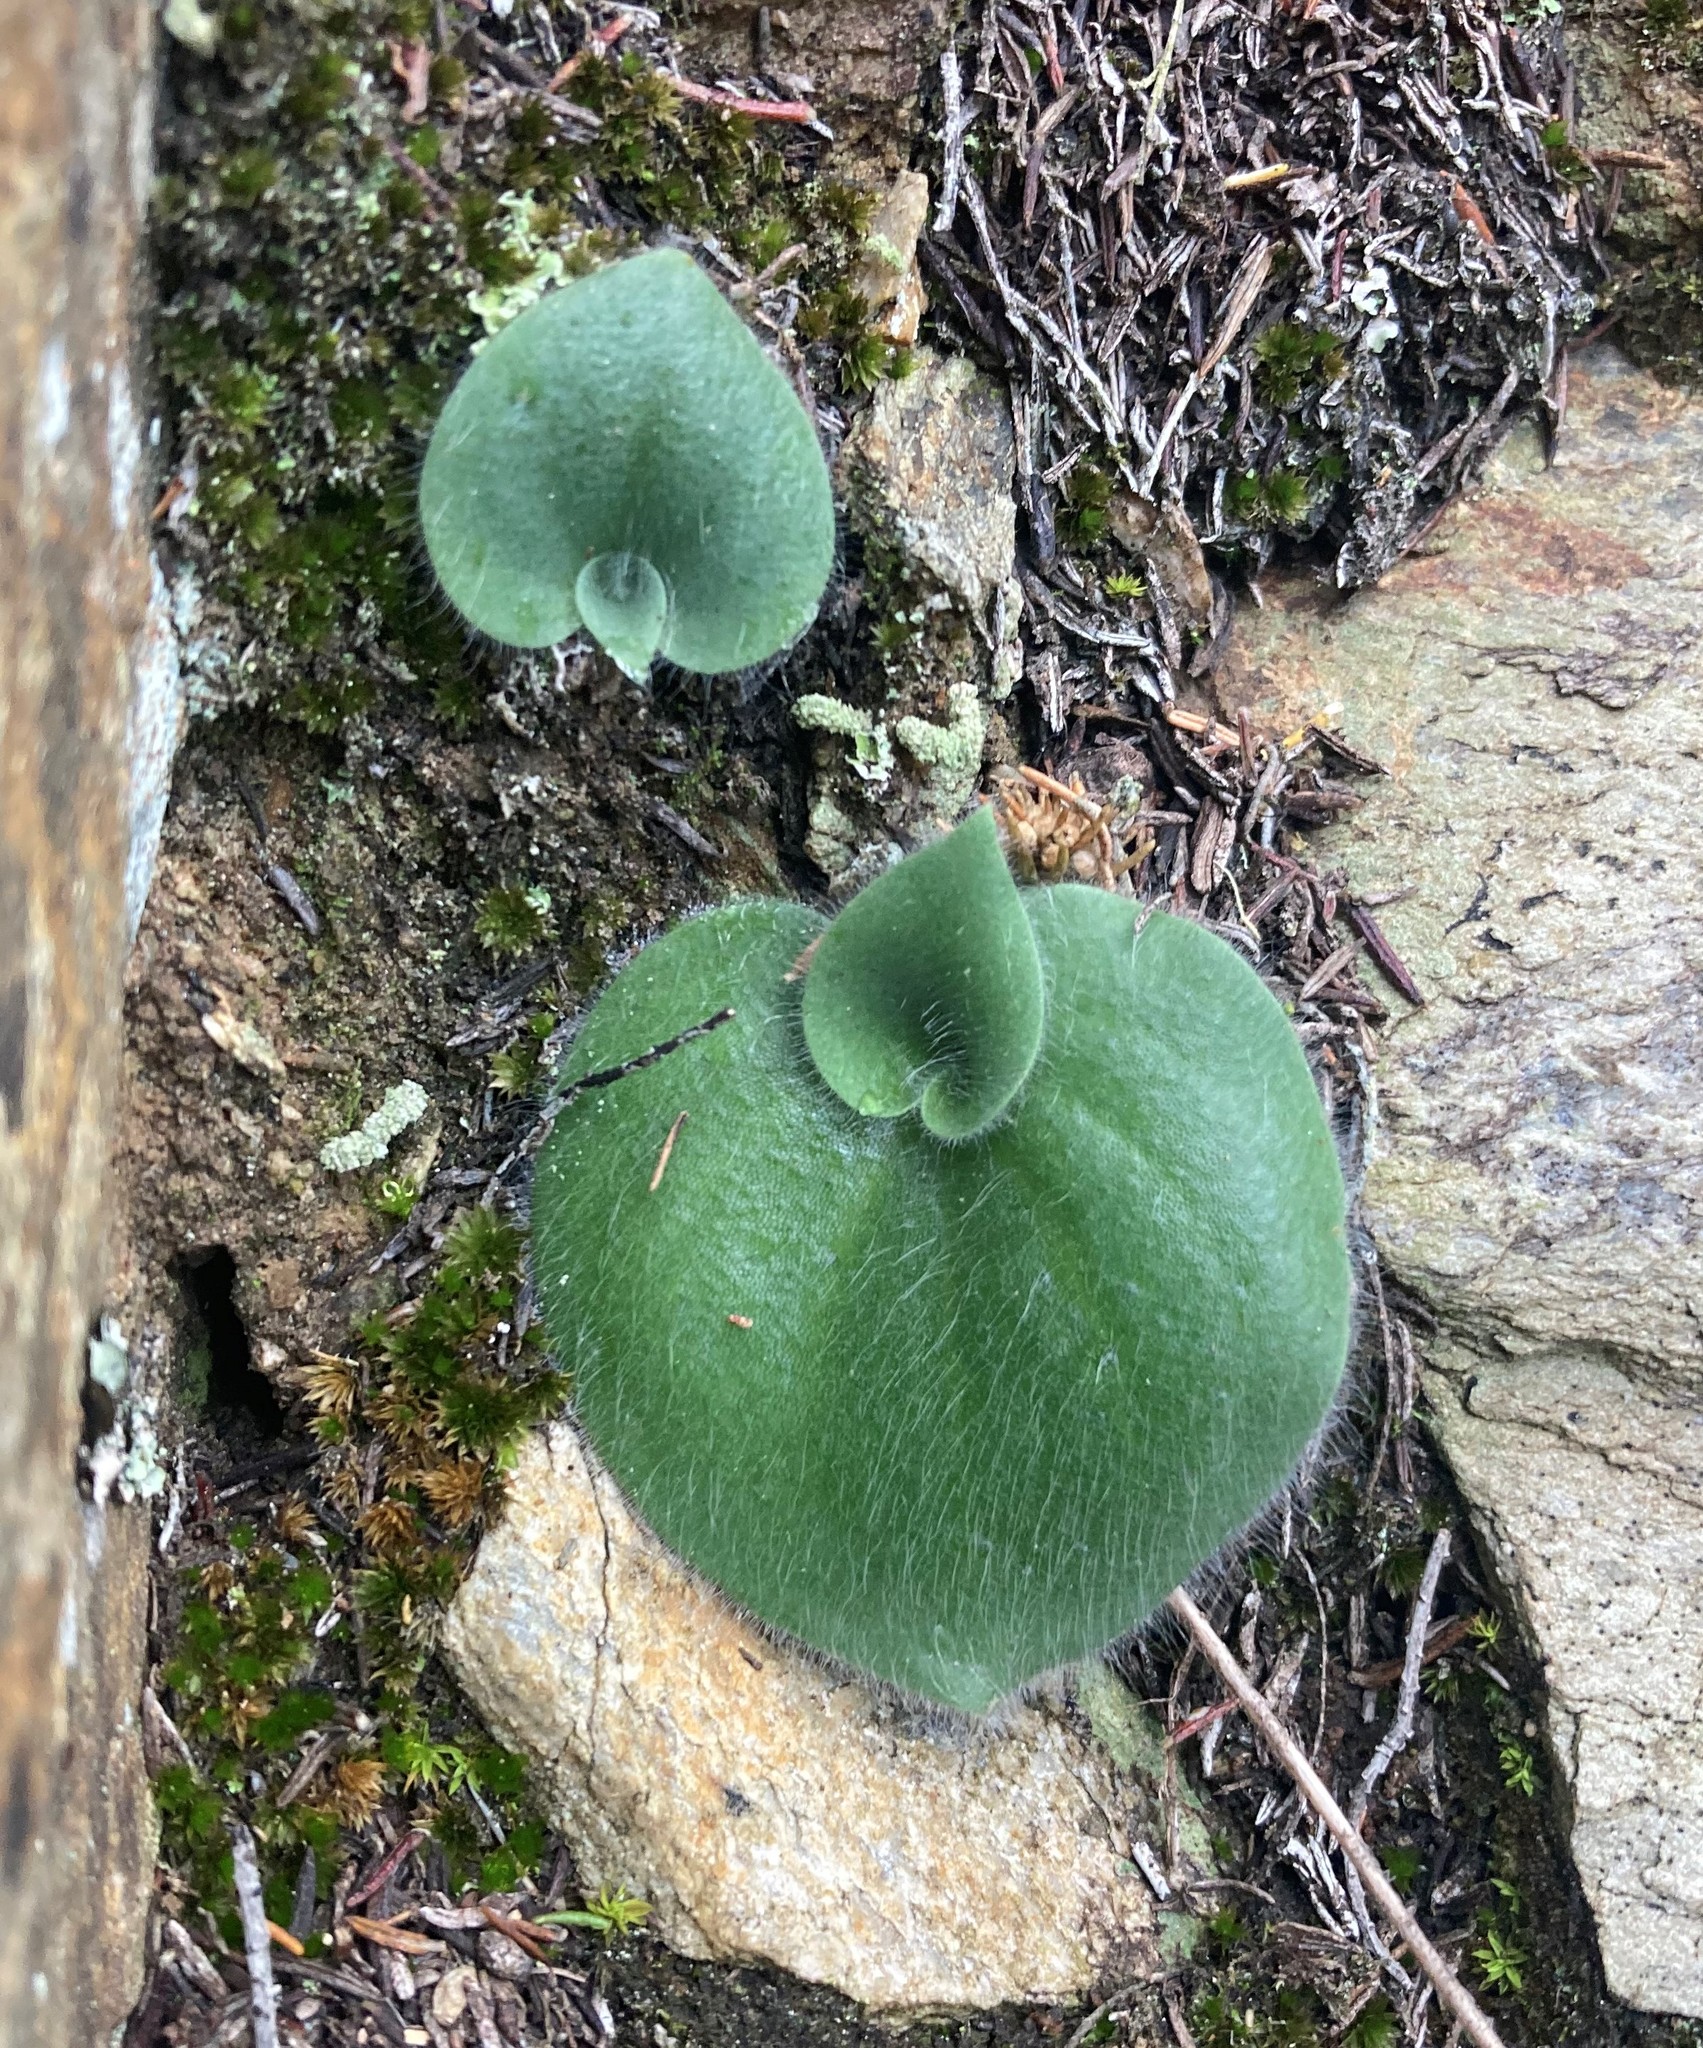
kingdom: Plantae
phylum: Tracheophyta
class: Liliopsida
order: Asparagales
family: Orchidaceae
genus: Holothrix
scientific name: Holothrix villosa
